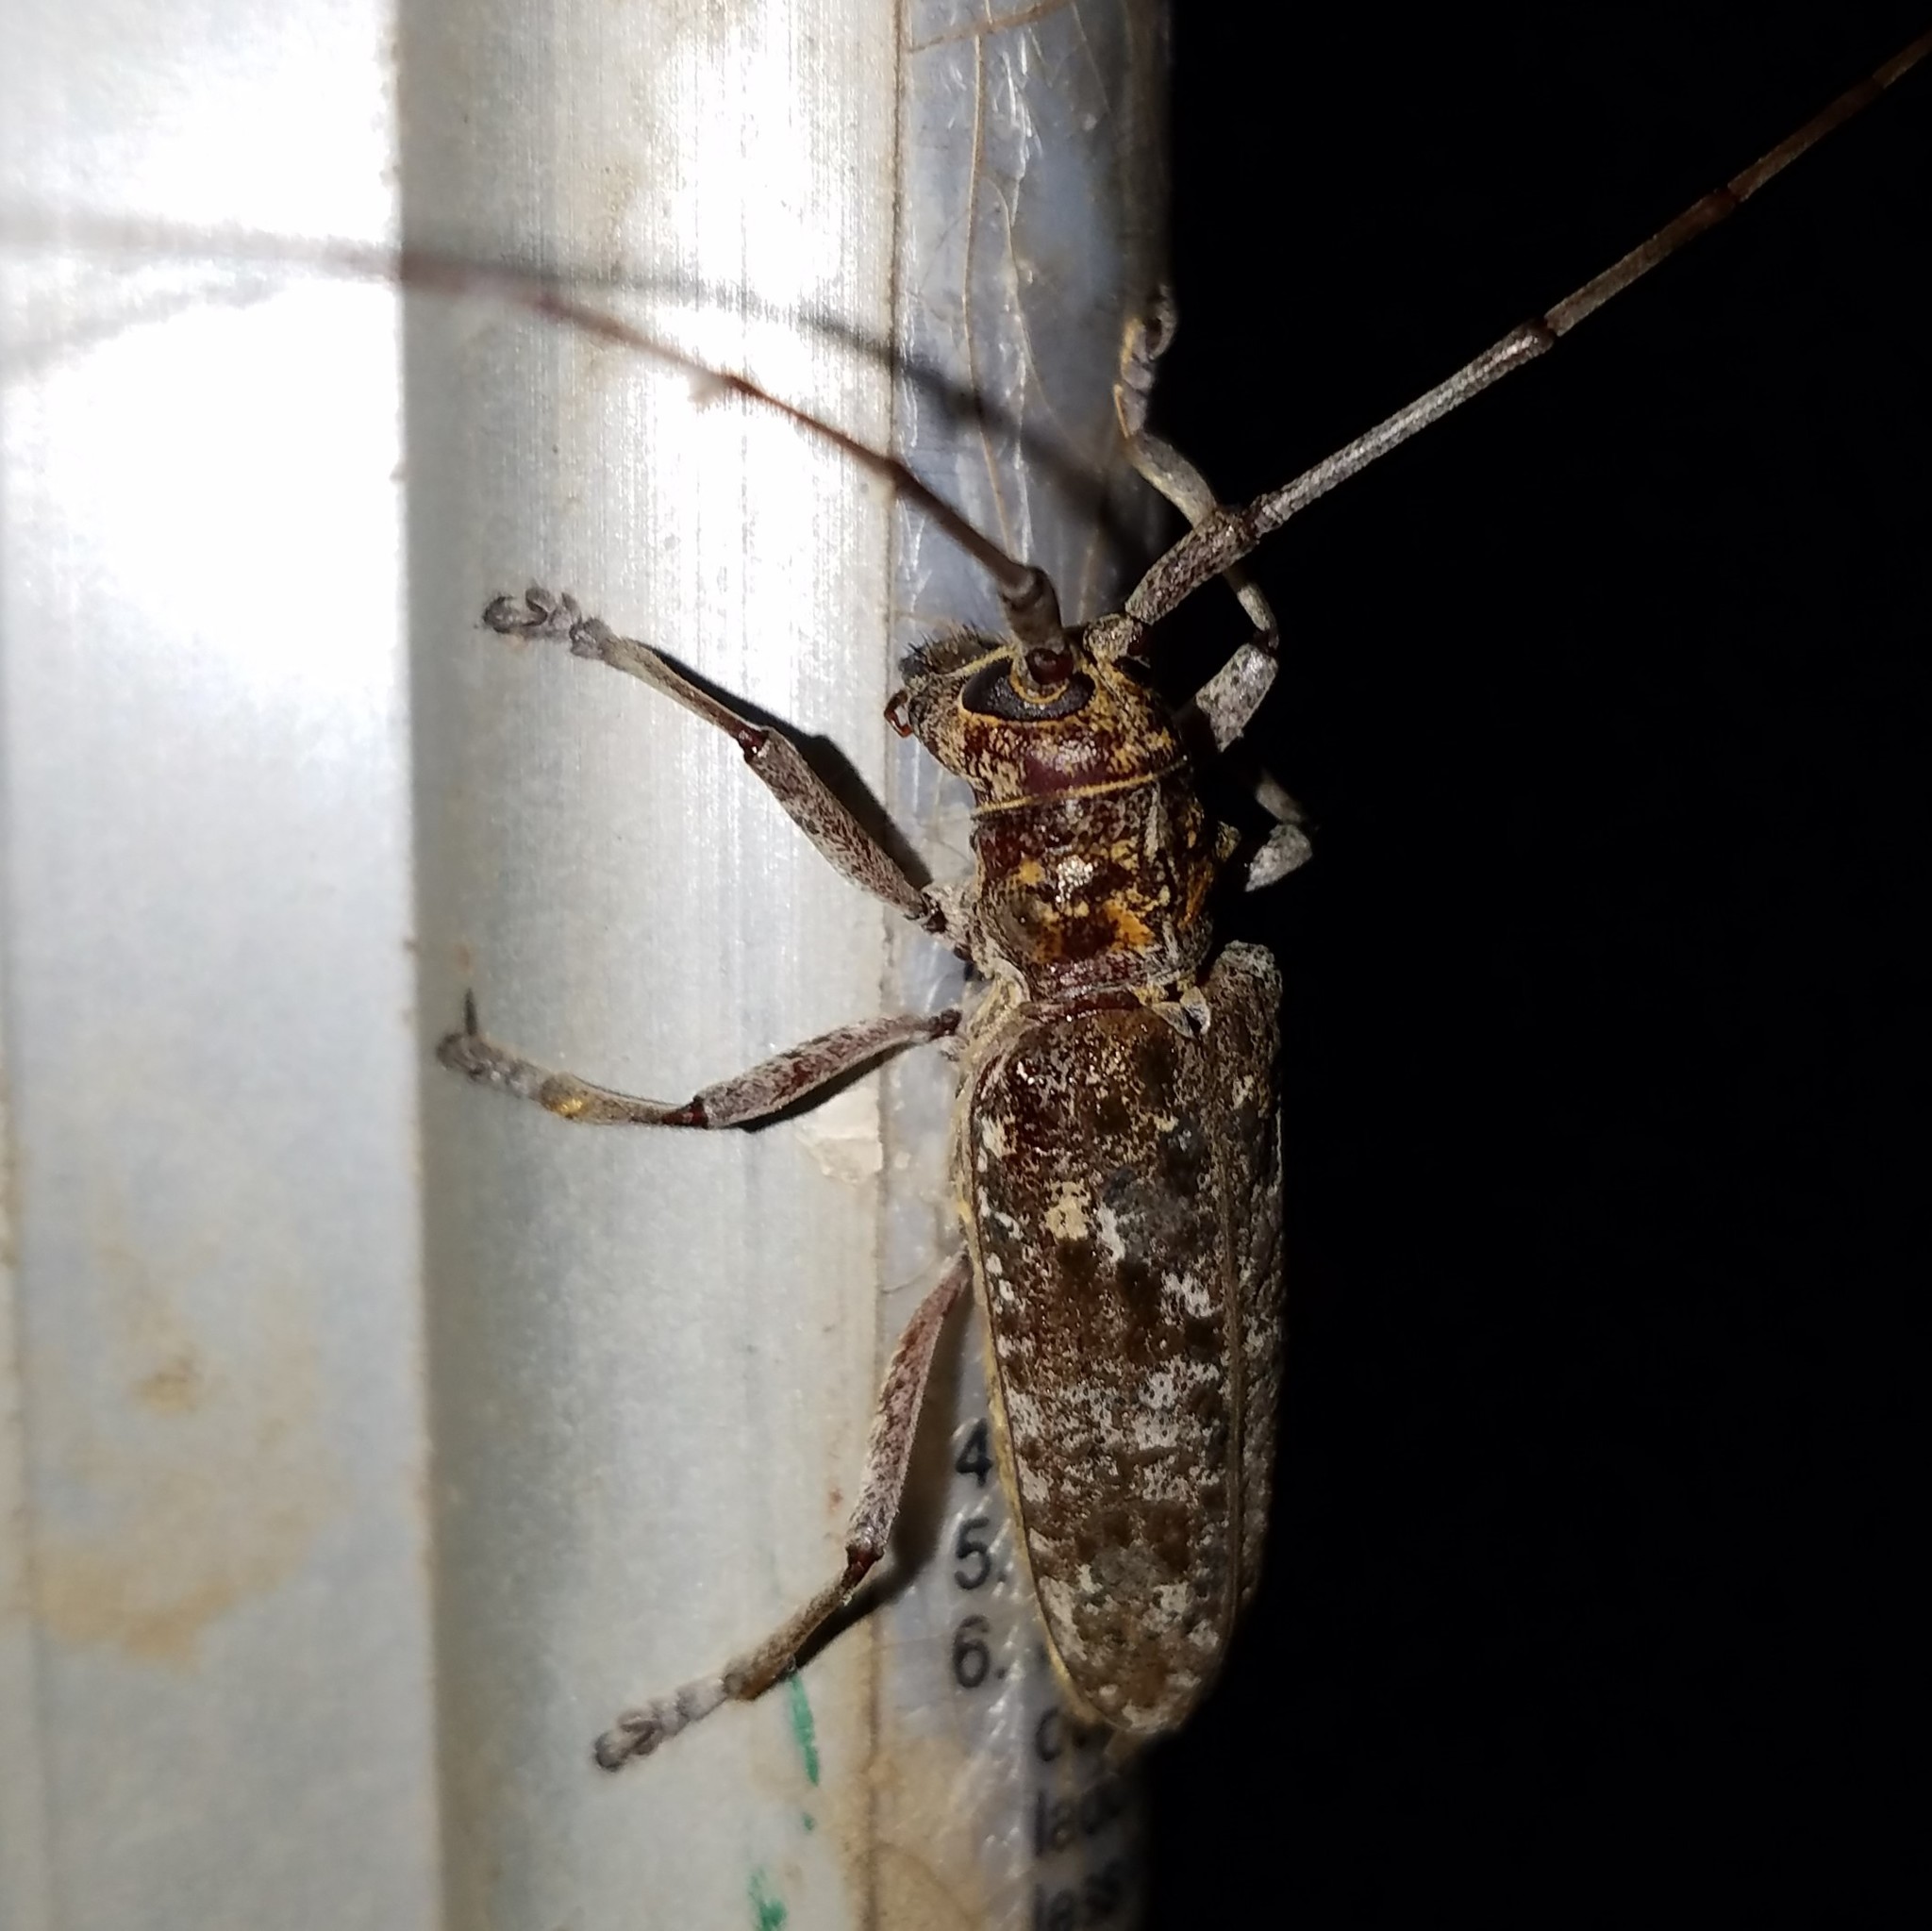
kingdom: Animalia
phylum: Arthropoda
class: Insecta
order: Coleoptera
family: Cerambycidae
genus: Monochamus
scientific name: Monochamus titillator
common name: Southern pine sawyer
